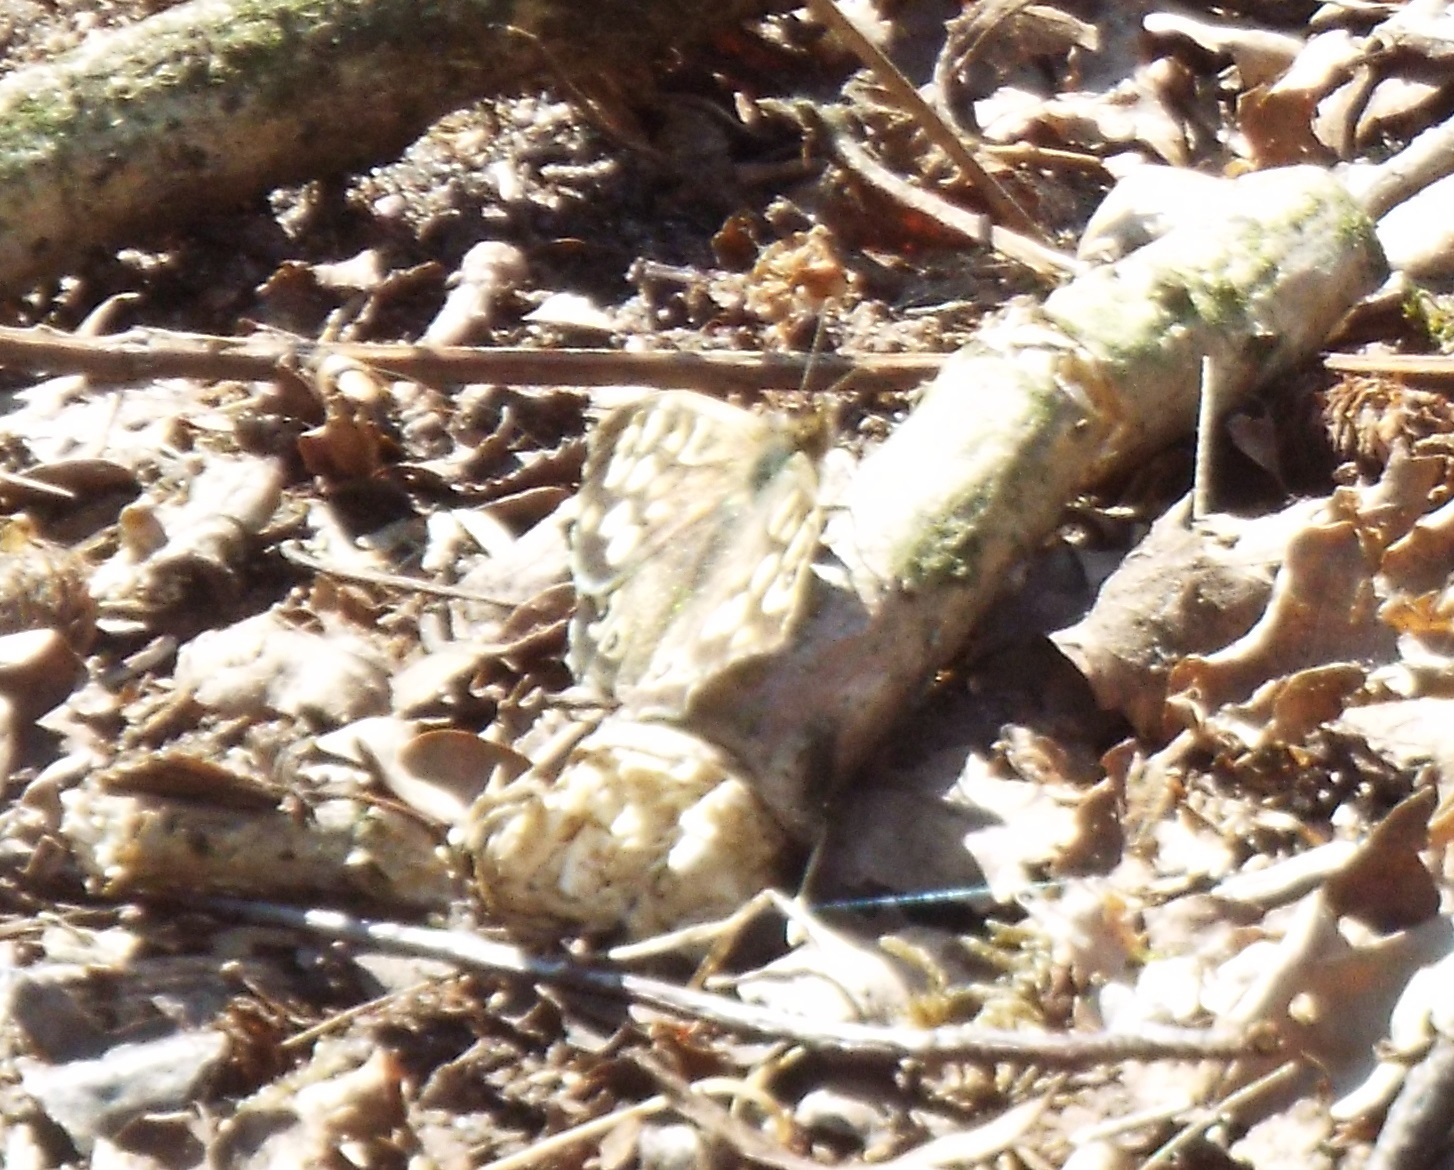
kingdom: Animalia
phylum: Arthropoda
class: Insecta
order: Lepidoptera
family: Nymphalidae
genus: Pararge
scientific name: Pararge aegeria
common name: Speckled wood
